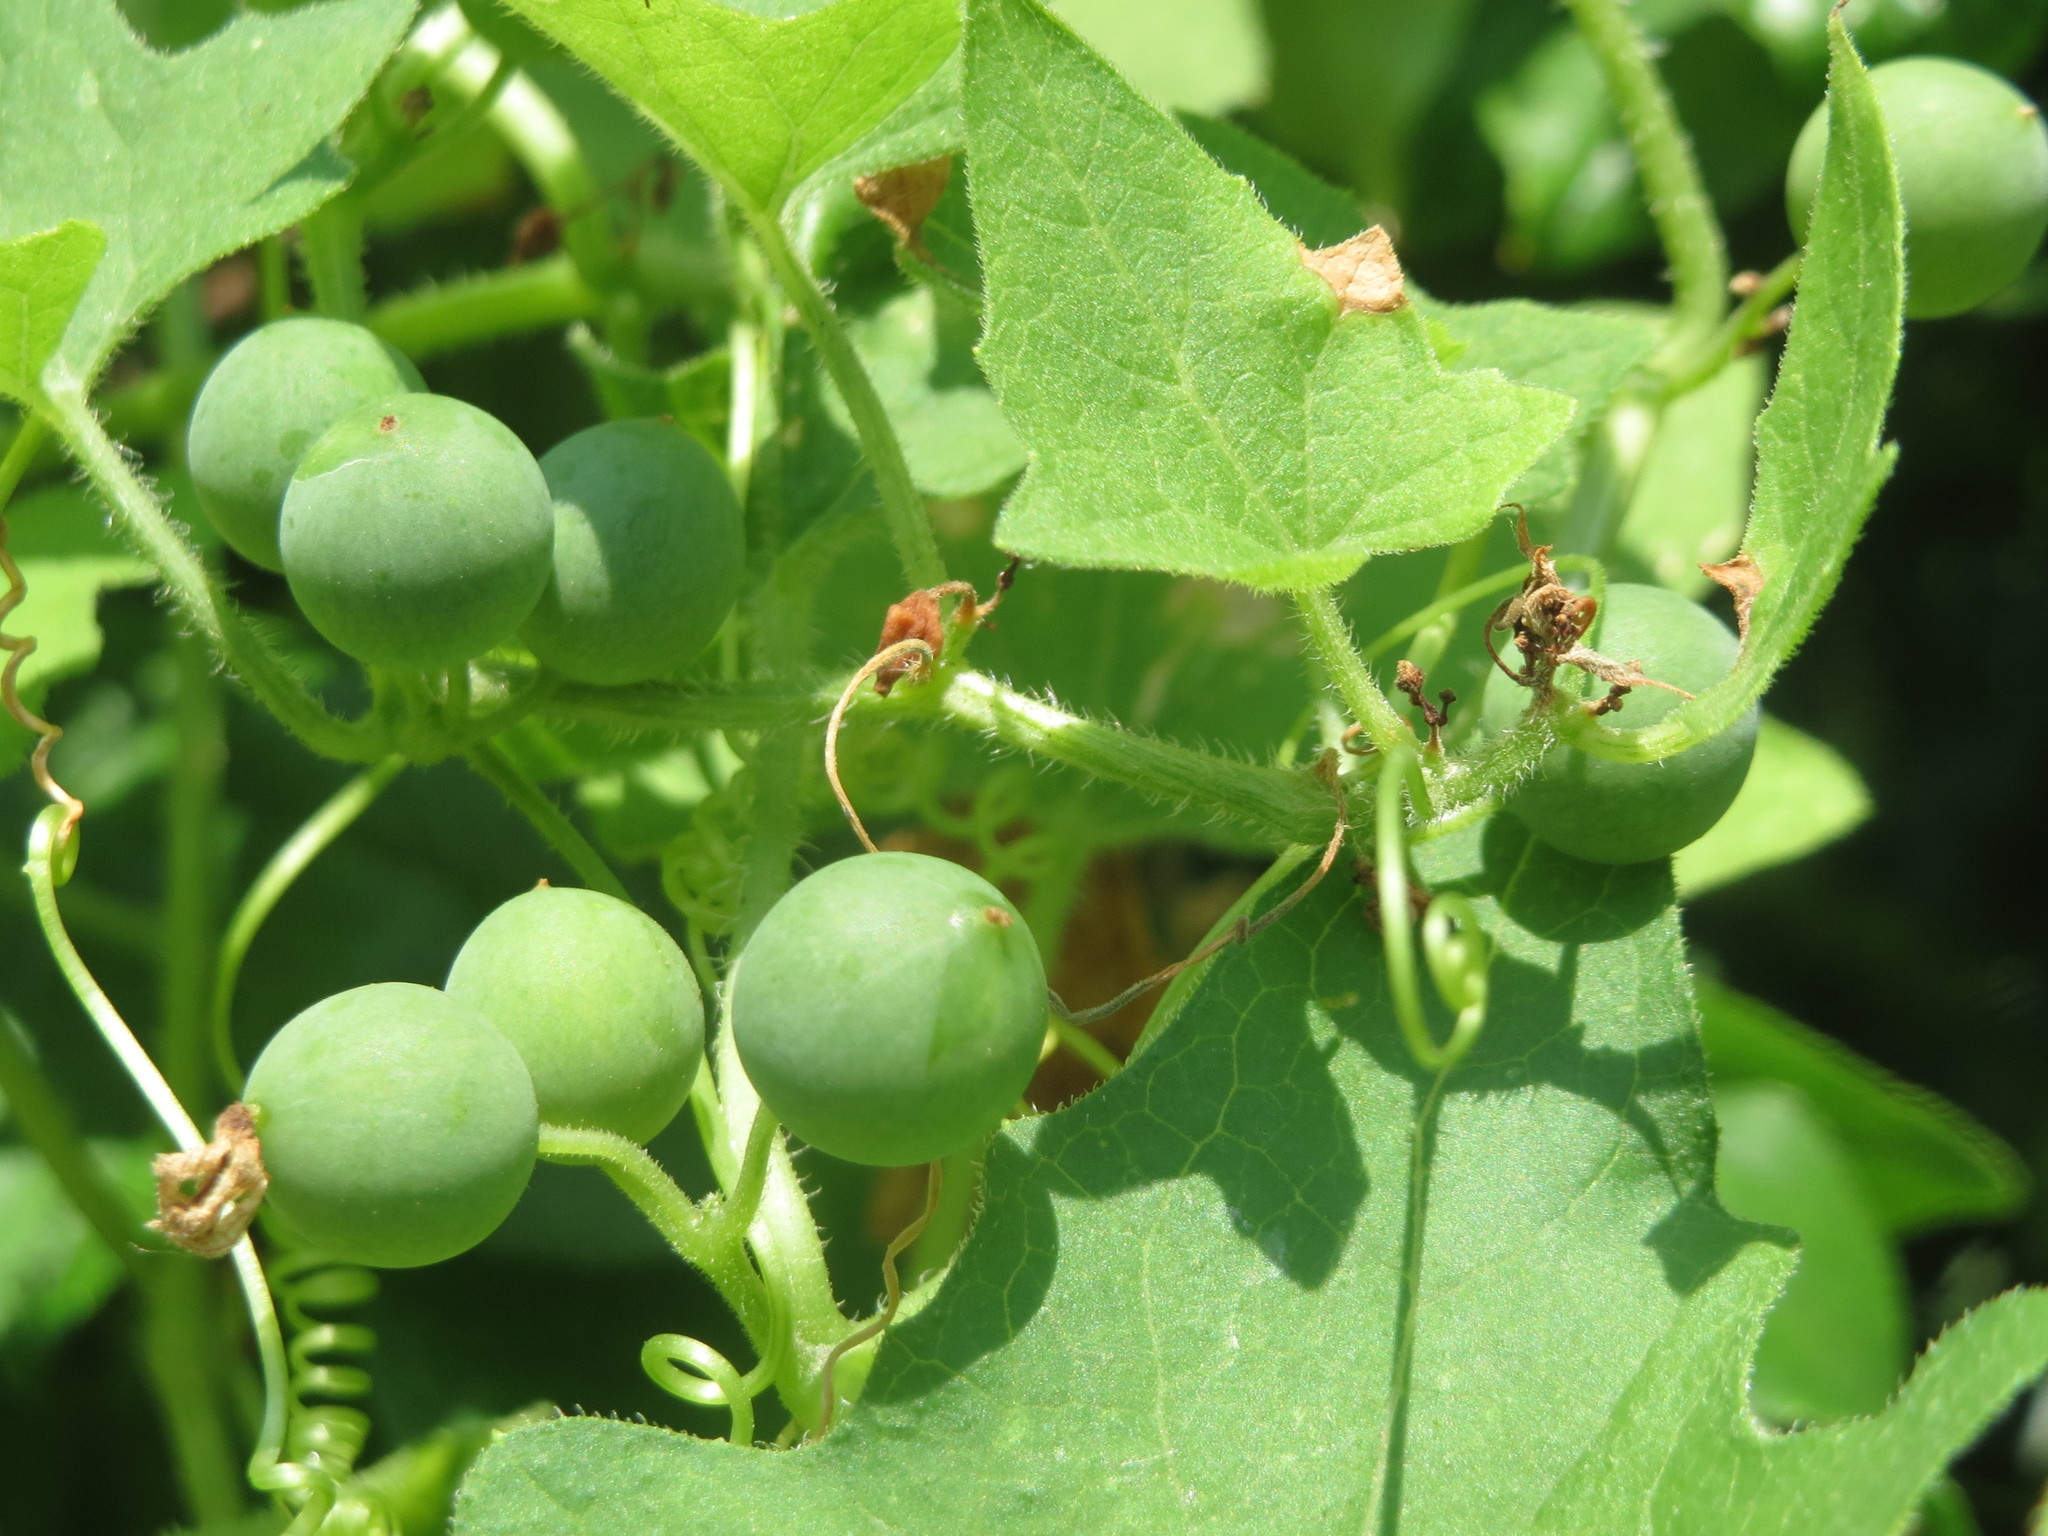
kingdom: Plantae
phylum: Tracheophyta
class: Magnoliopsida
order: Cucurbitales
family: Cucurbitaceae
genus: Bryonia
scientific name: Bryonia dioica
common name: White bryony
